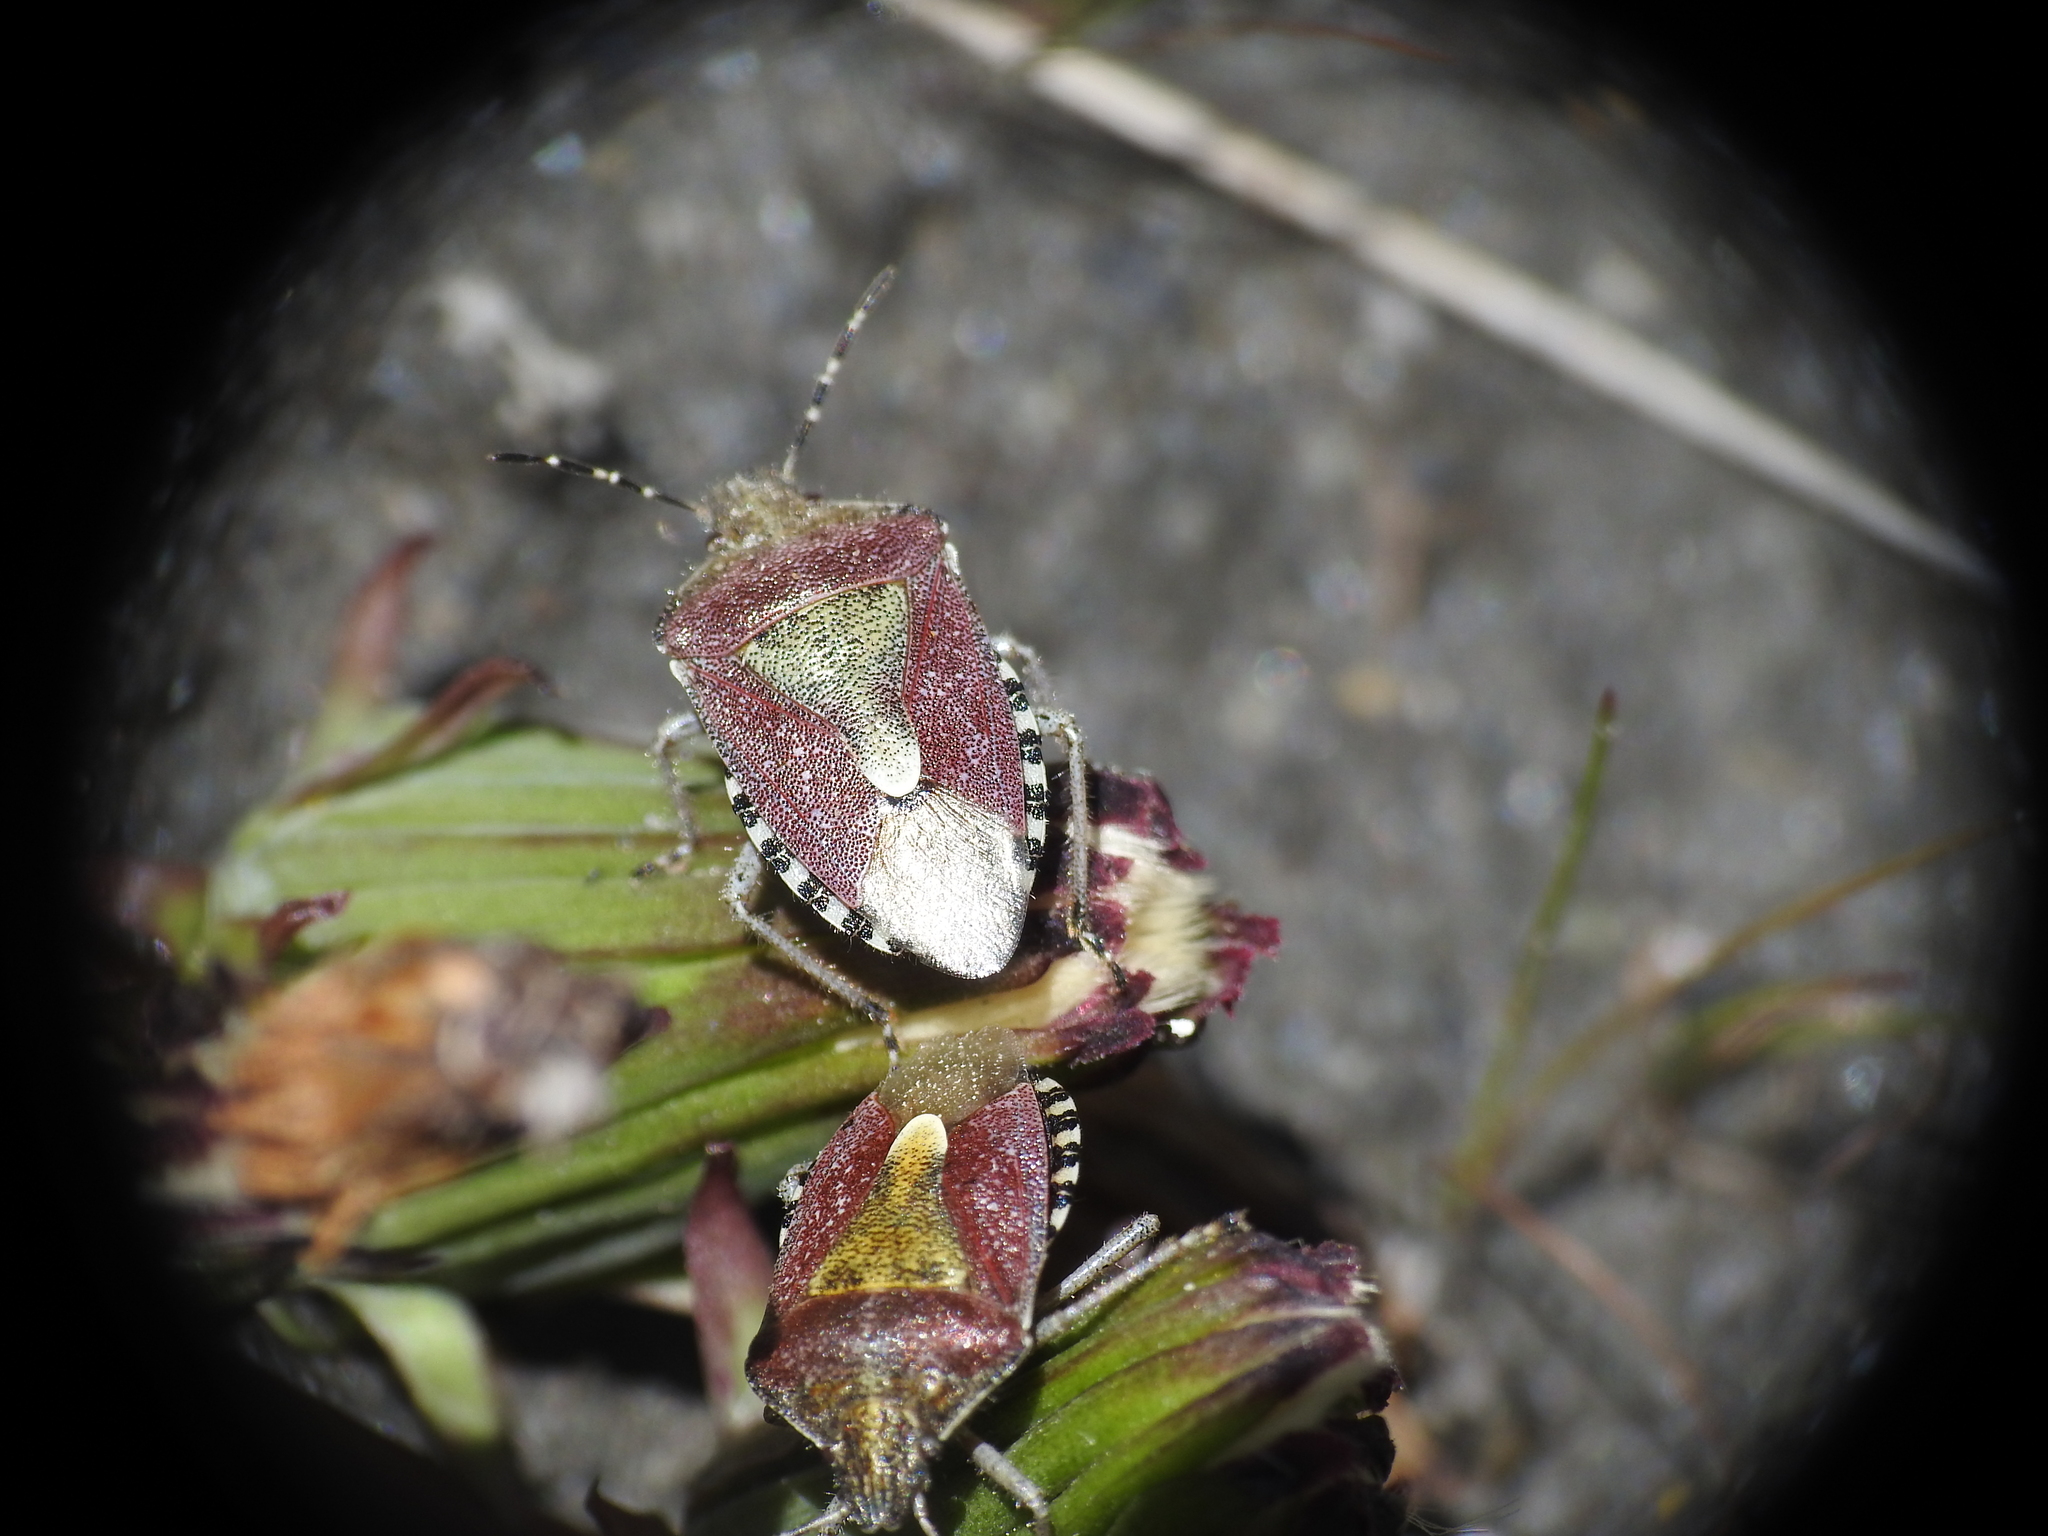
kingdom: Animalia
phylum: Arthropoda
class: Insecta
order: Hemiptera
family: Pentatomidae
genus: Dolycoris
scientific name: Dolycoris baccarum
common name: Sloe bug
